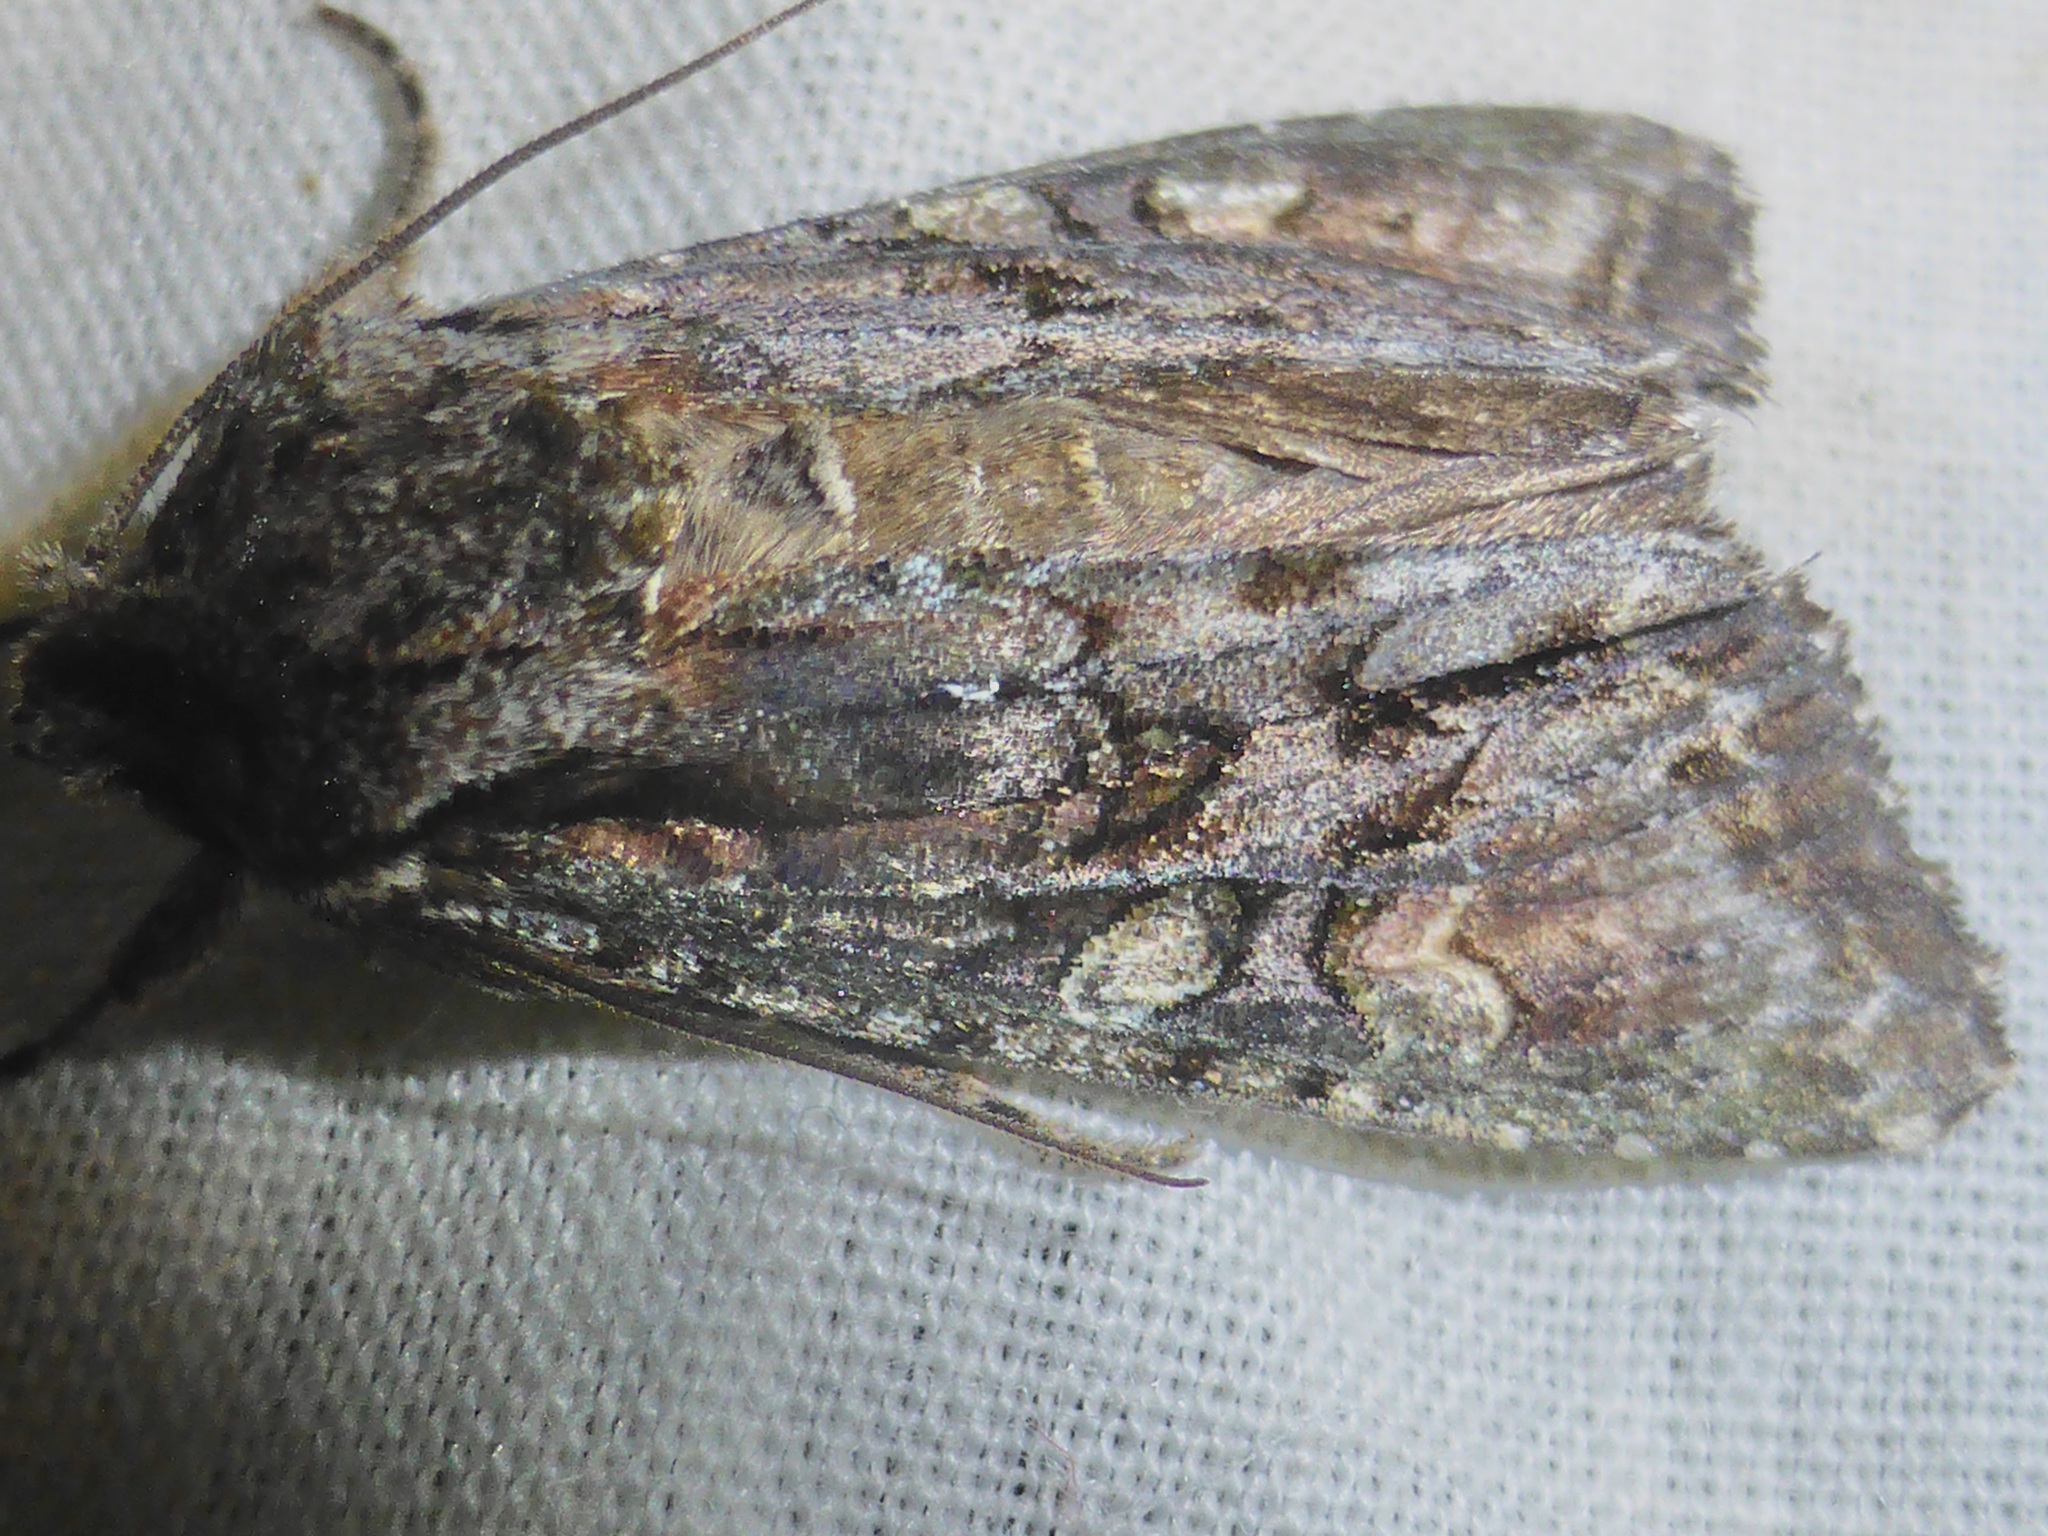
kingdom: Animalia
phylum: Arthropoda
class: Insecta
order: Lepidoptera
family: Noctuidae
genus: Ichneutica
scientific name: Ichneutica mutans
